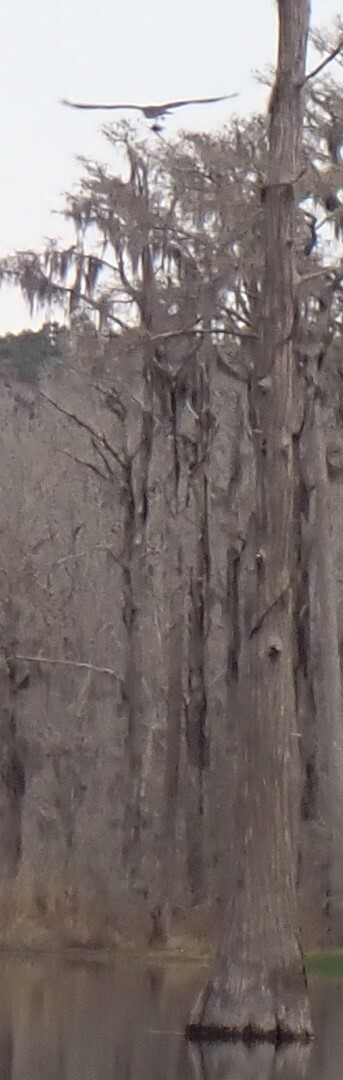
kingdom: Animalia
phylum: Chordata
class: Aves
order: Accipitriformes
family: Pandionidae
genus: Pandion
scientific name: Pandion haliaetus
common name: Osprey
